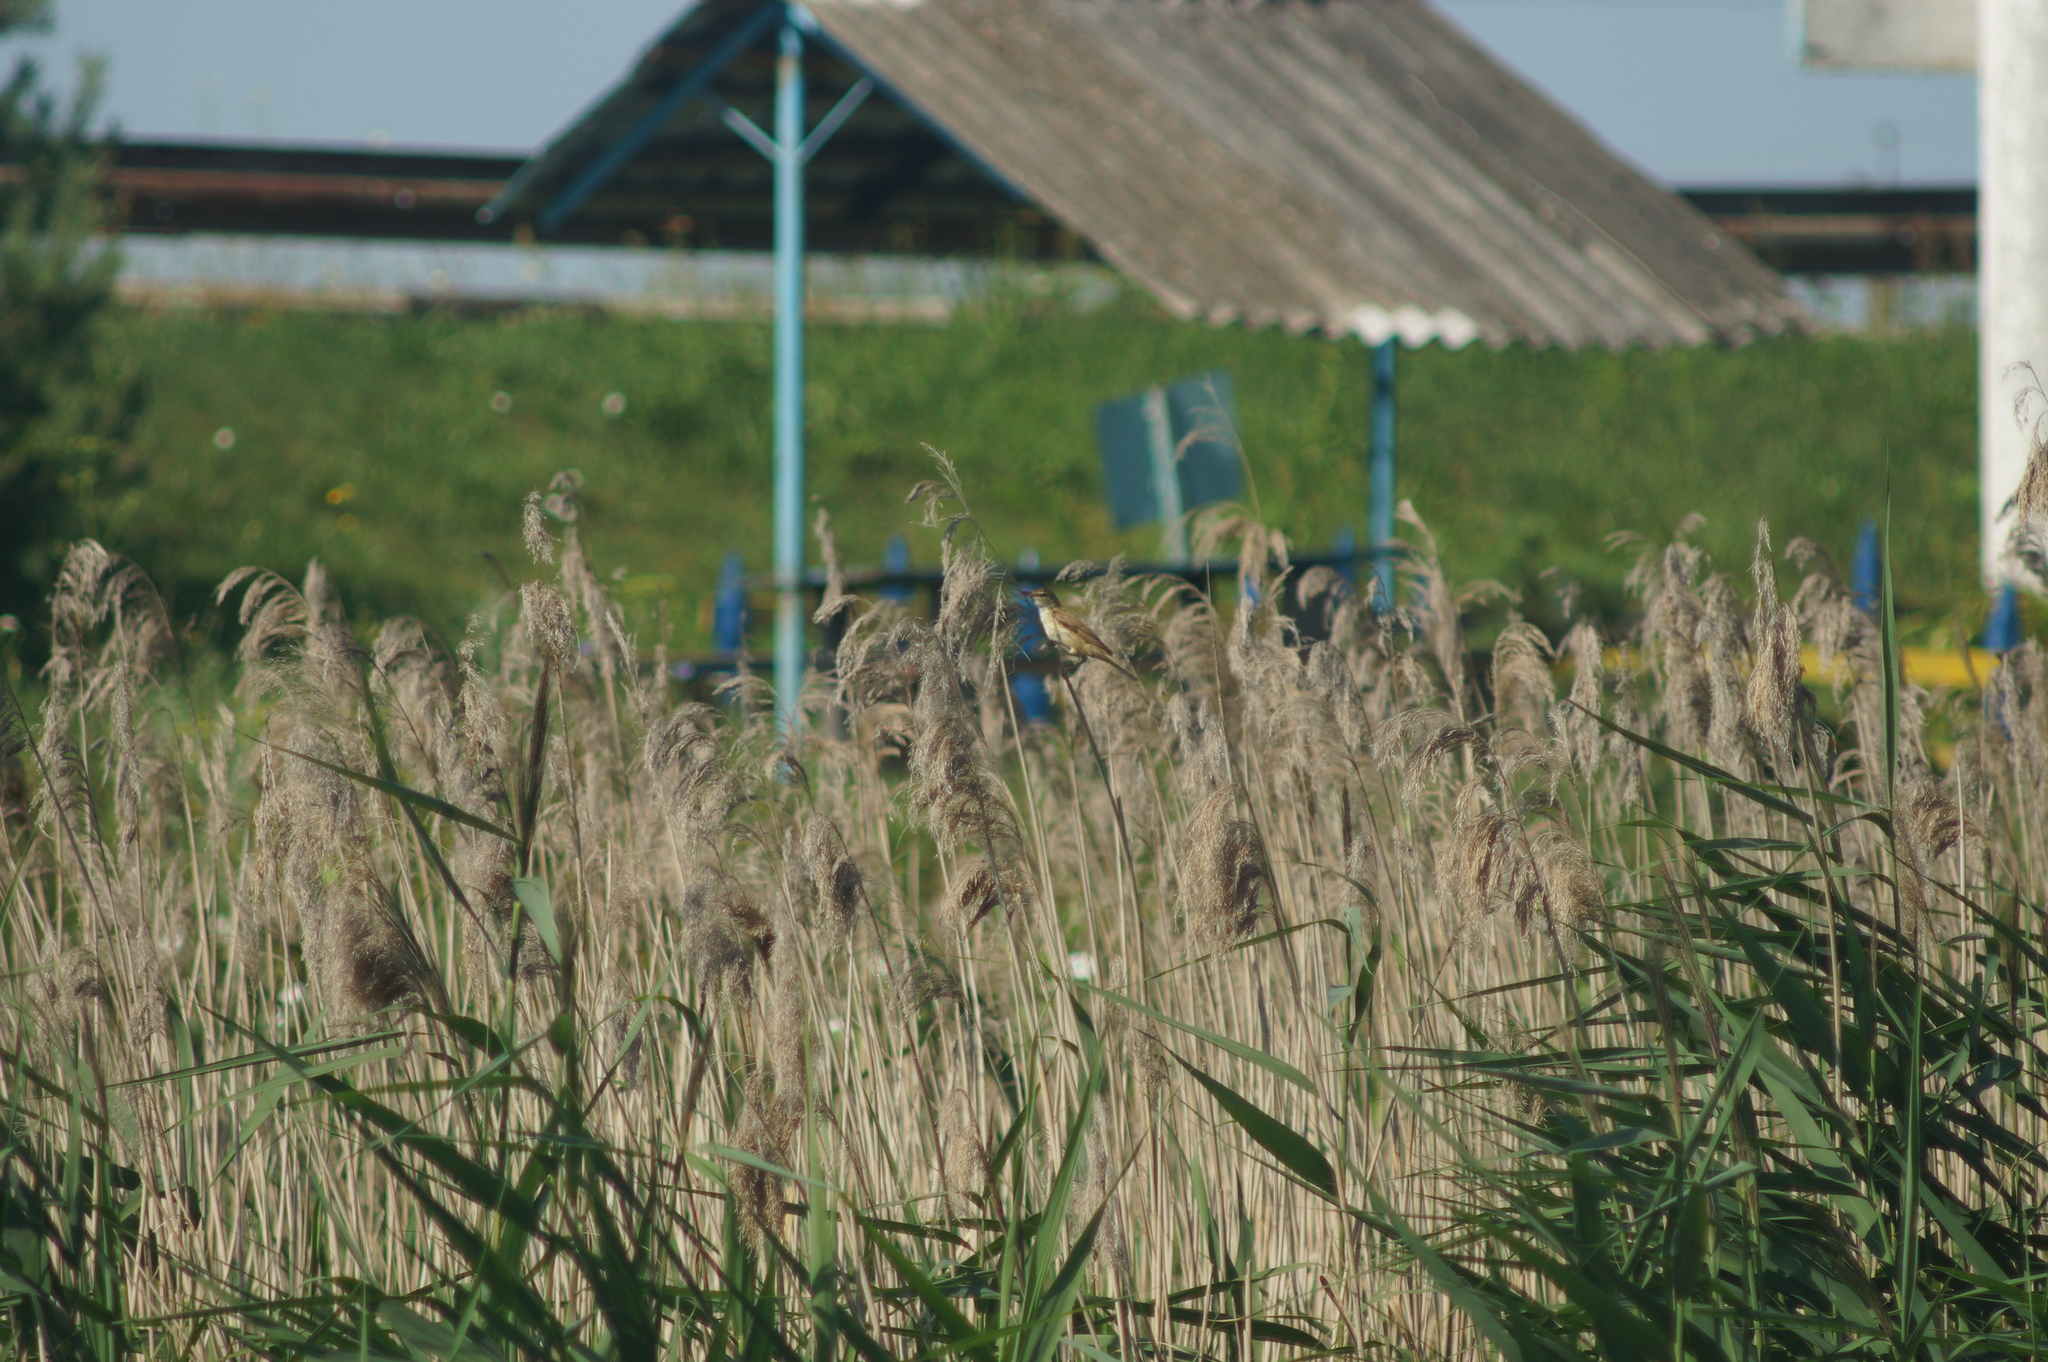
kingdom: Animalia
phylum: Chordata
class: Aves
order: Passeriformes
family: Acrocephalidae
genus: Acrocephalus
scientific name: Acrocephalus arundinaceus
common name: Great reed warbler
